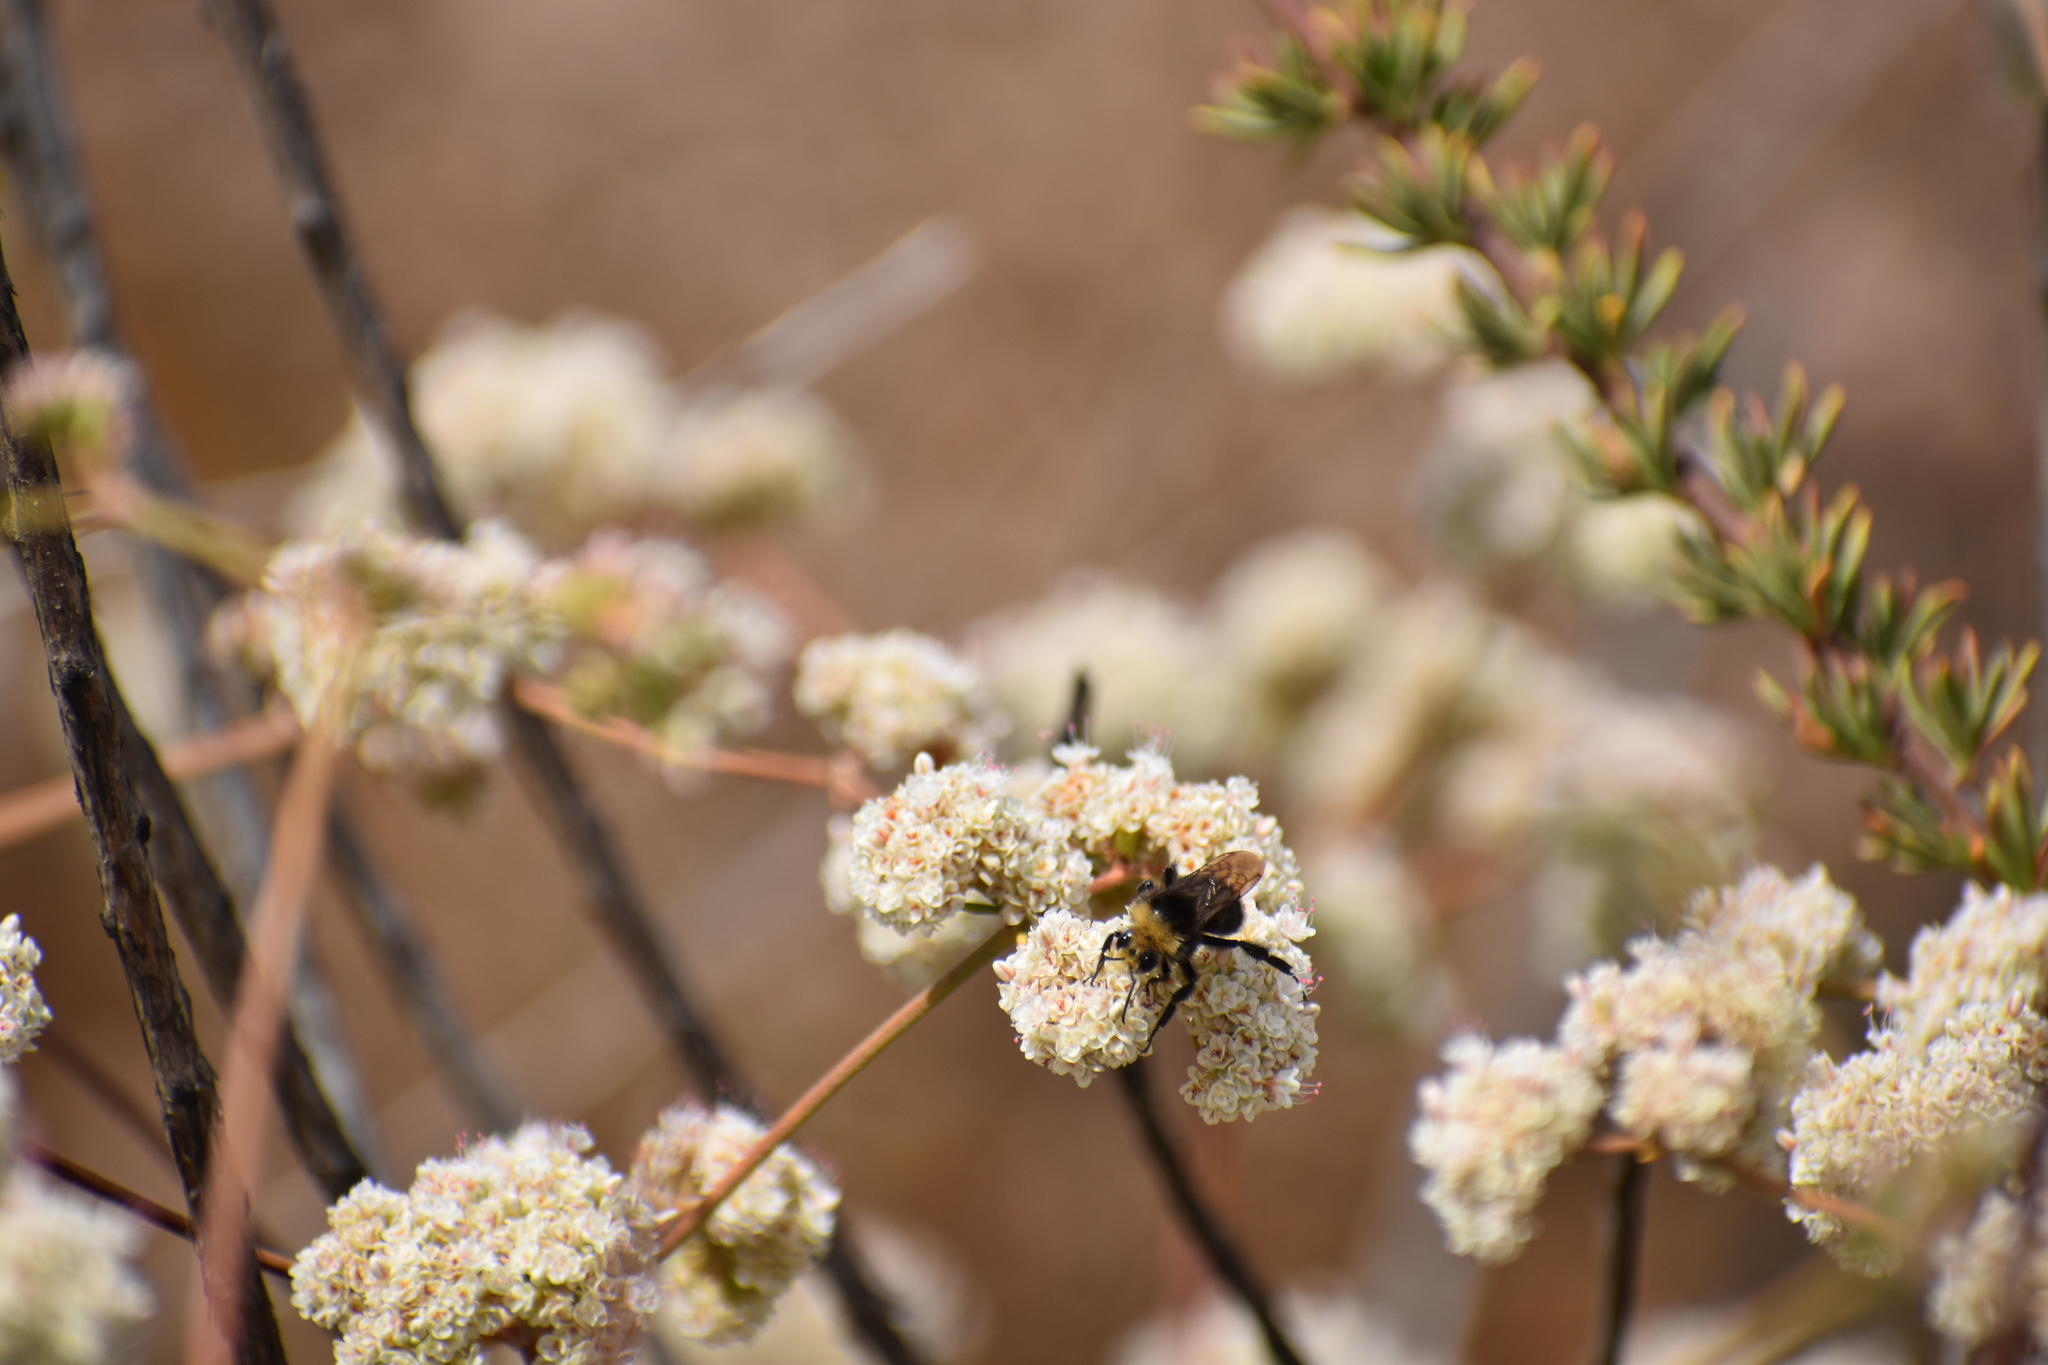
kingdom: Animalia
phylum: Arthropoda
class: Insecta
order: Hymenoptera
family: Apidae
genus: Bombus
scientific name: Bombus vosnesenskii
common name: Vosnesensky bumble bee
